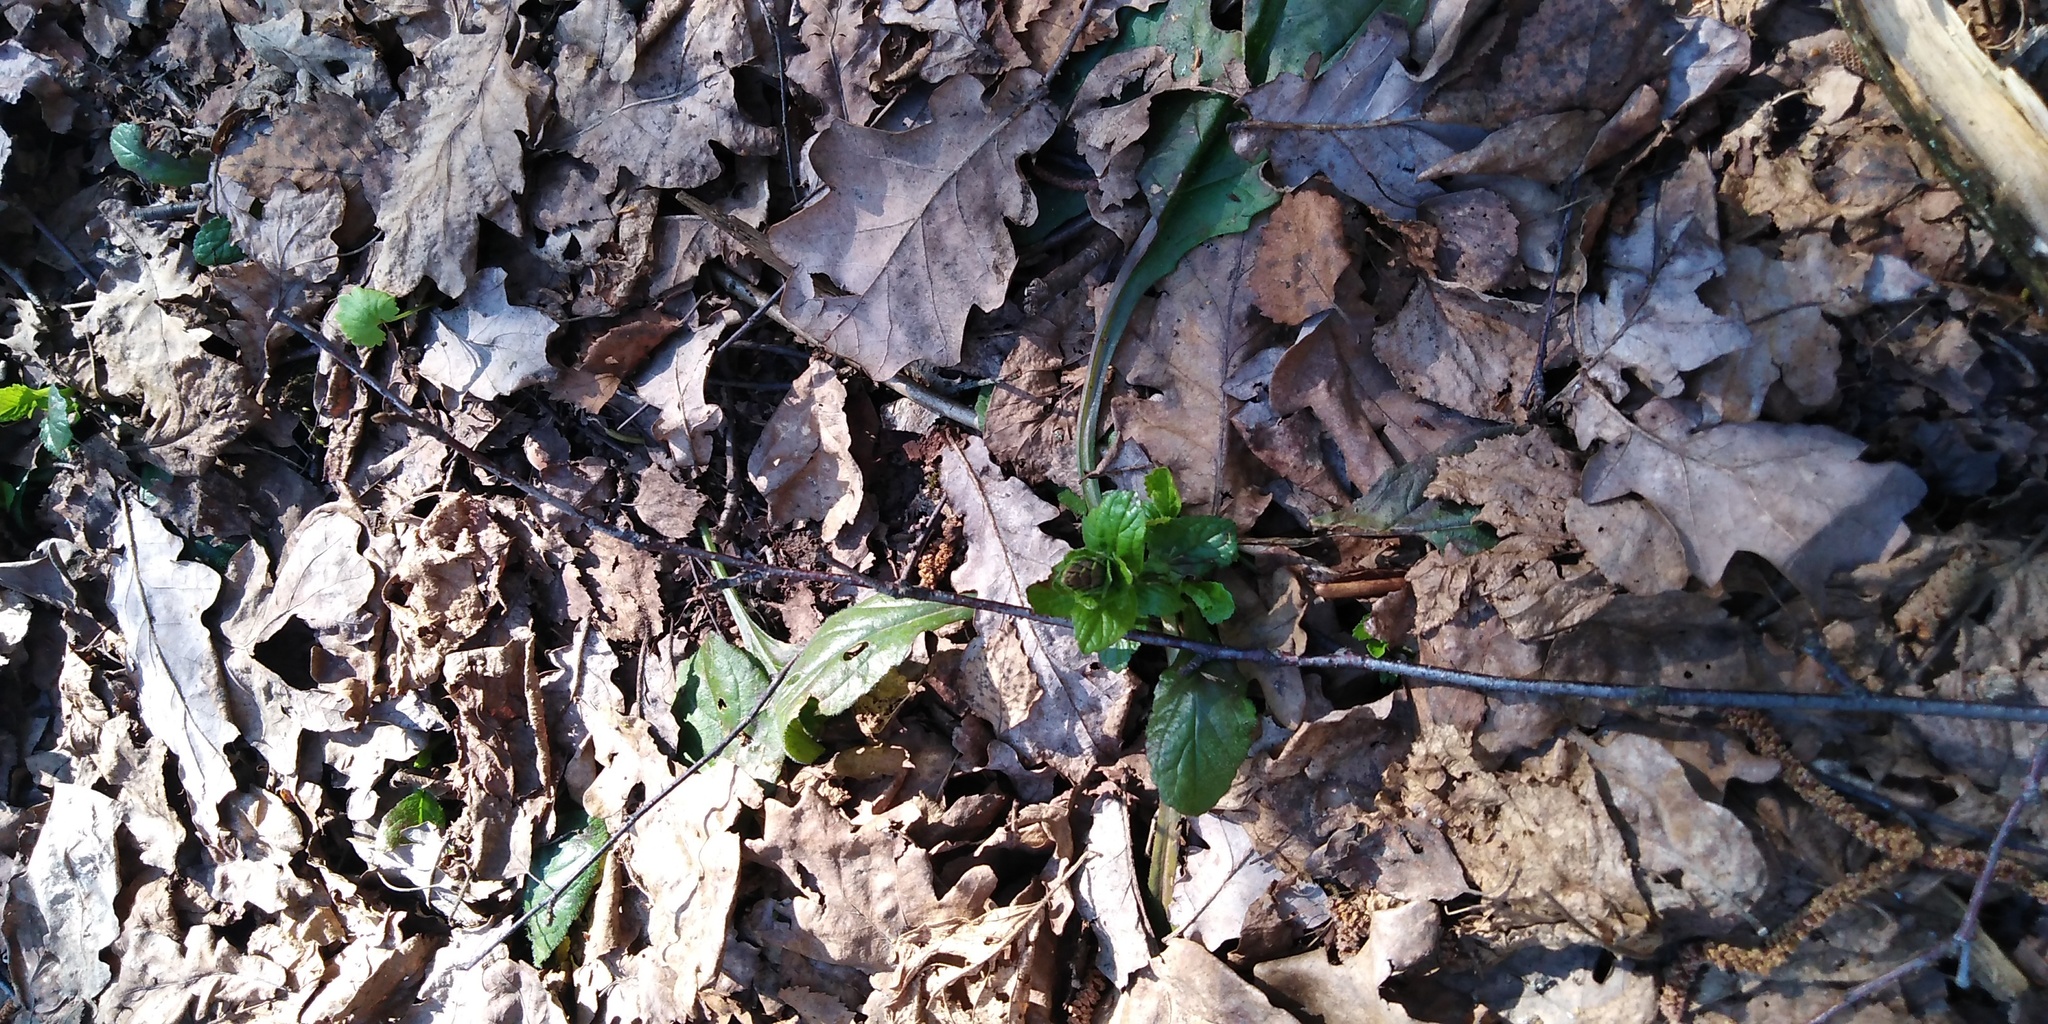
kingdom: Plantae
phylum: Tracheophyta
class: Magnoliopsida
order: Lamiales
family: Lamiaceae
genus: Ajuga
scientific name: Ajuga reptans
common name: Bugle
